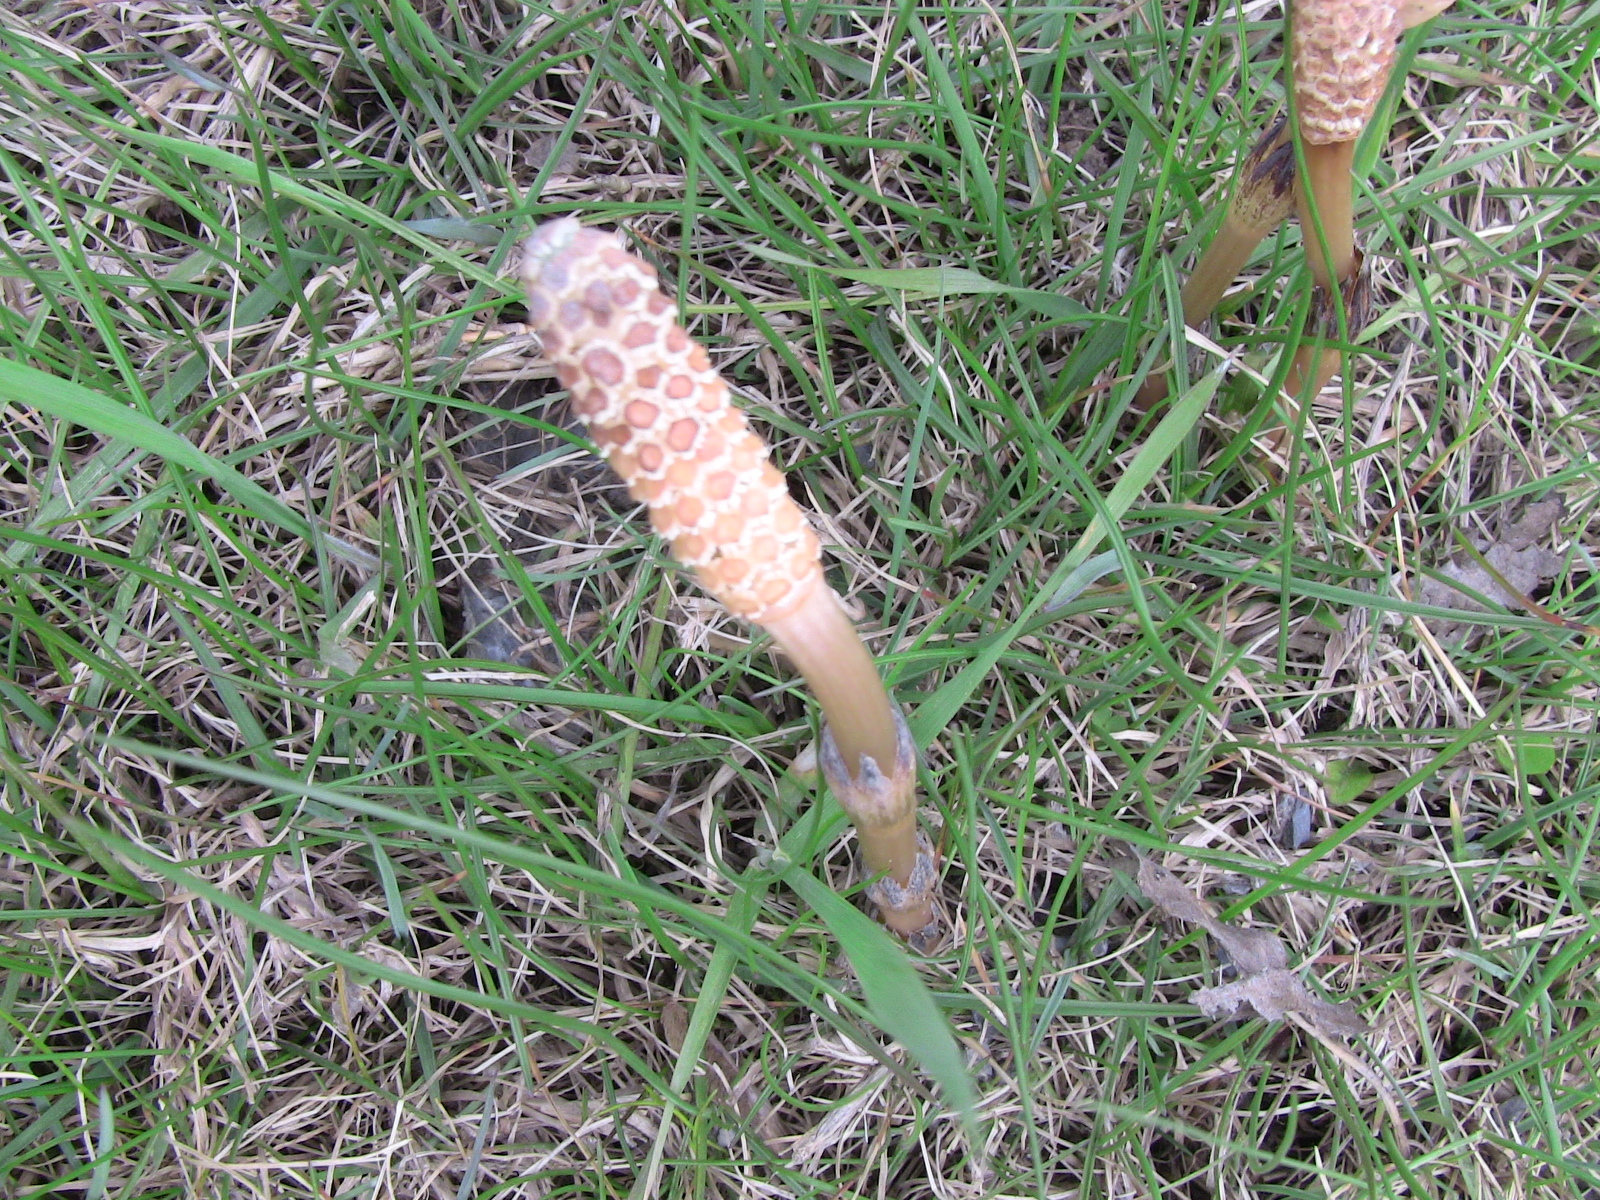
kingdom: Plantae
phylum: Tracheophyta
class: Polypodiopsida
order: Equisetales
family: Equisetaceae
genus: Equisetum
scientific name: Equisetum arvense
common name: Field horsetail
